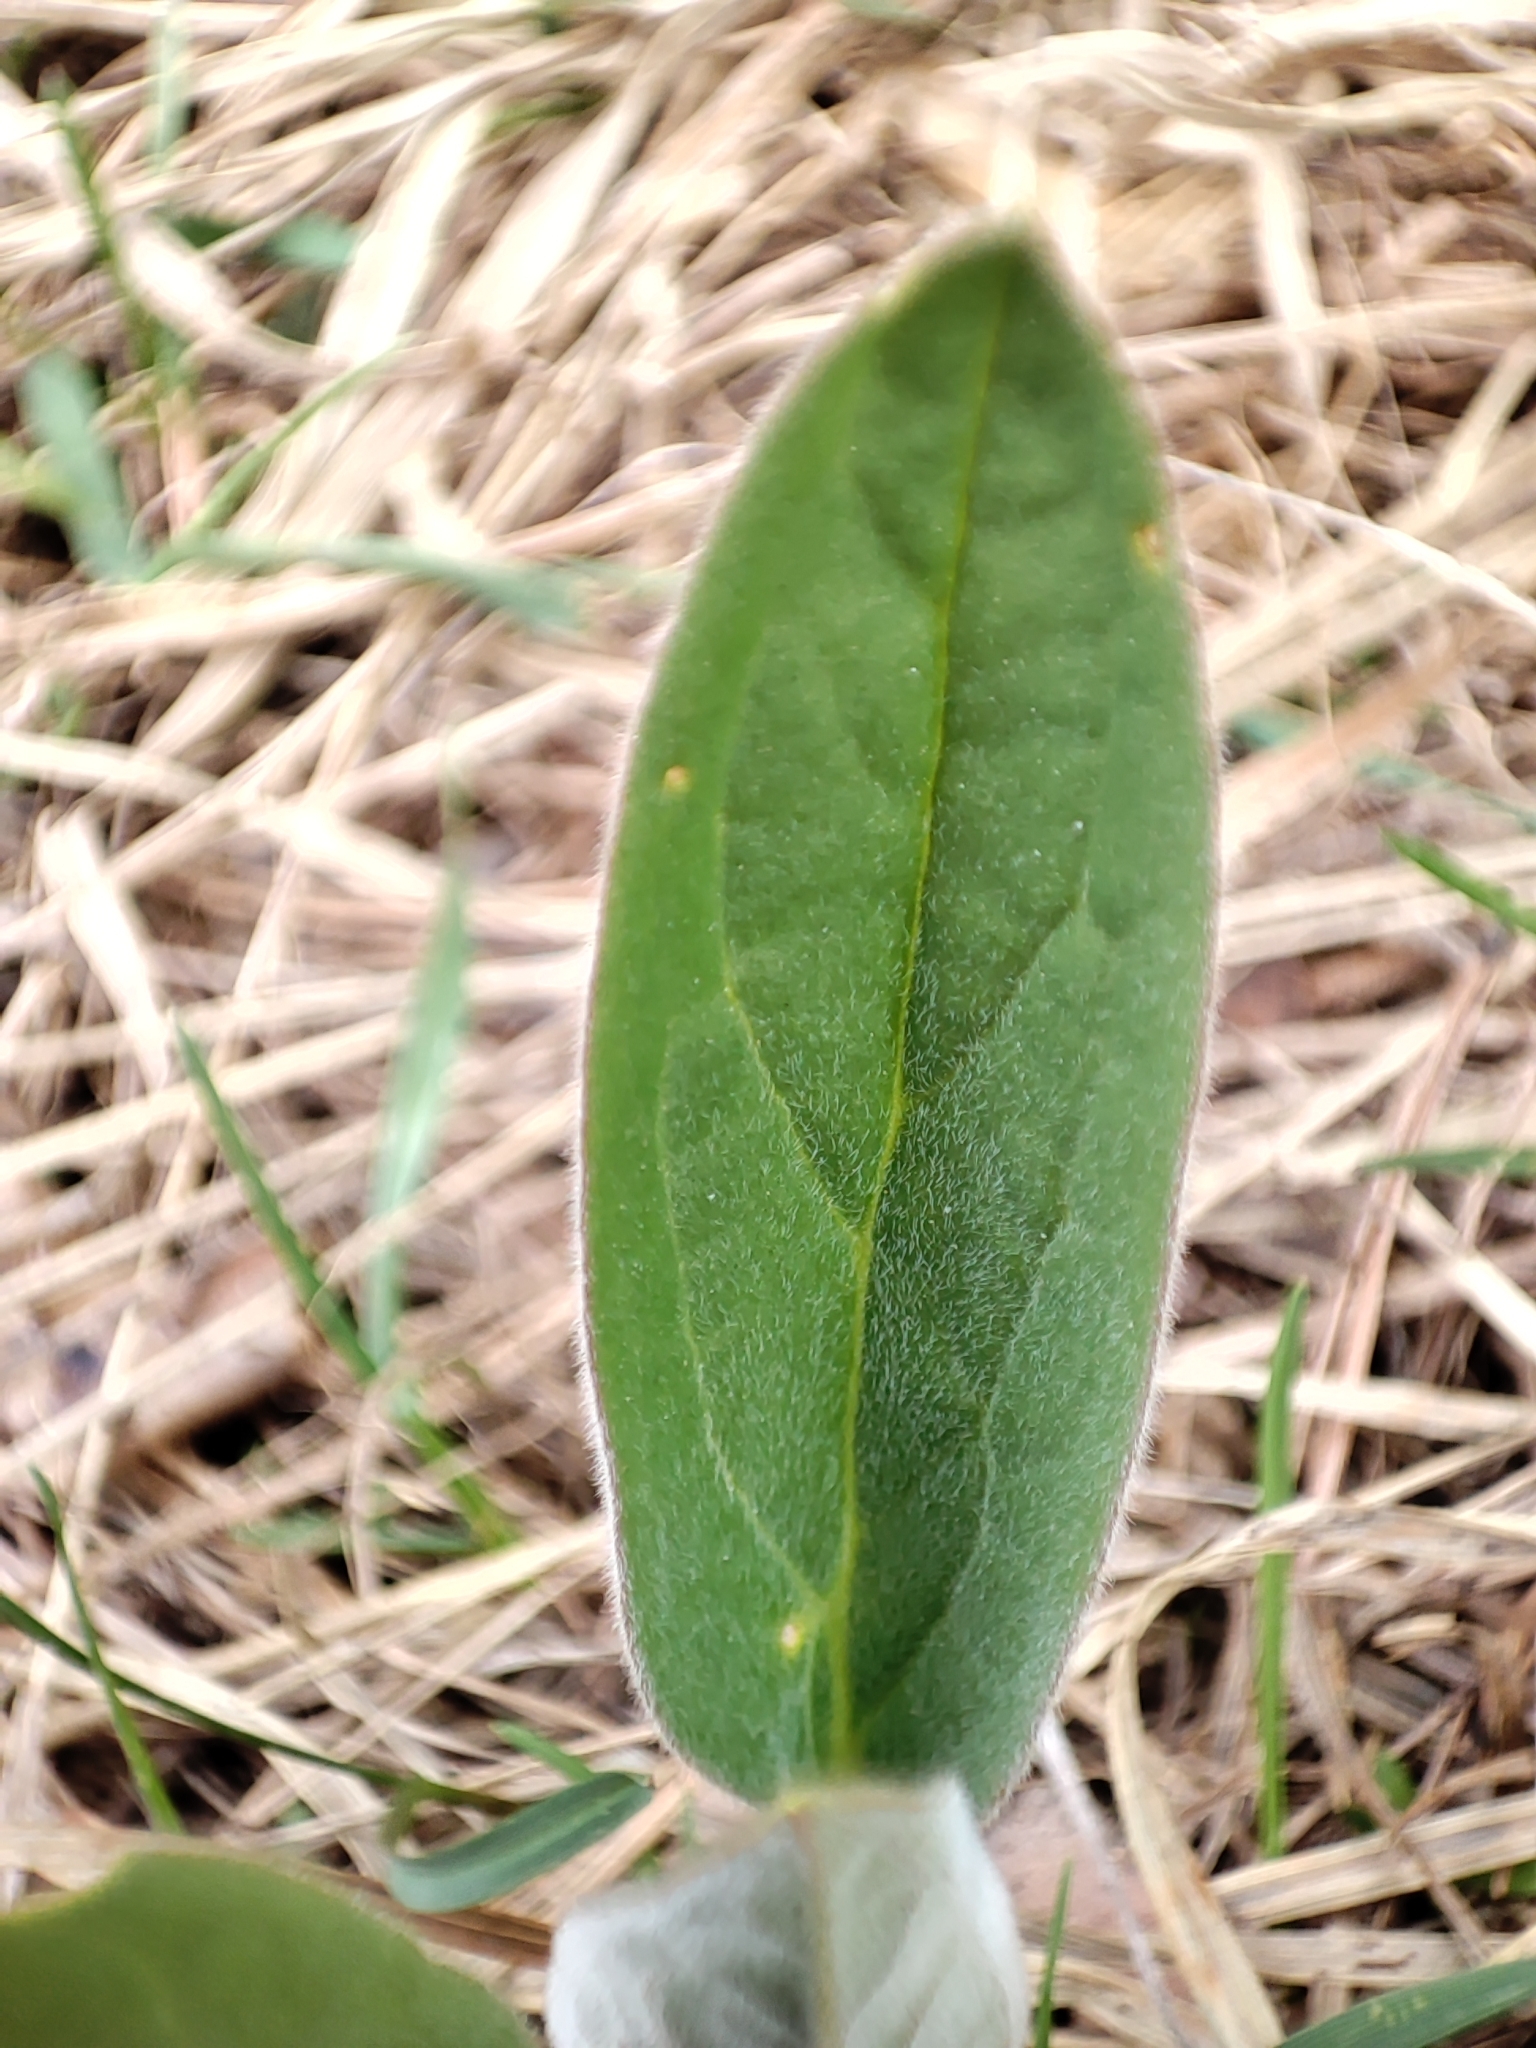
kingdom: Plantae
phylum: Tracheophyta
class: Magnoliopsida
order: Boraginales
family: Boraginaceae
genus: Cynoglossum
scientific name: Cynoglossum officinale
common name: Hound's-tongue
